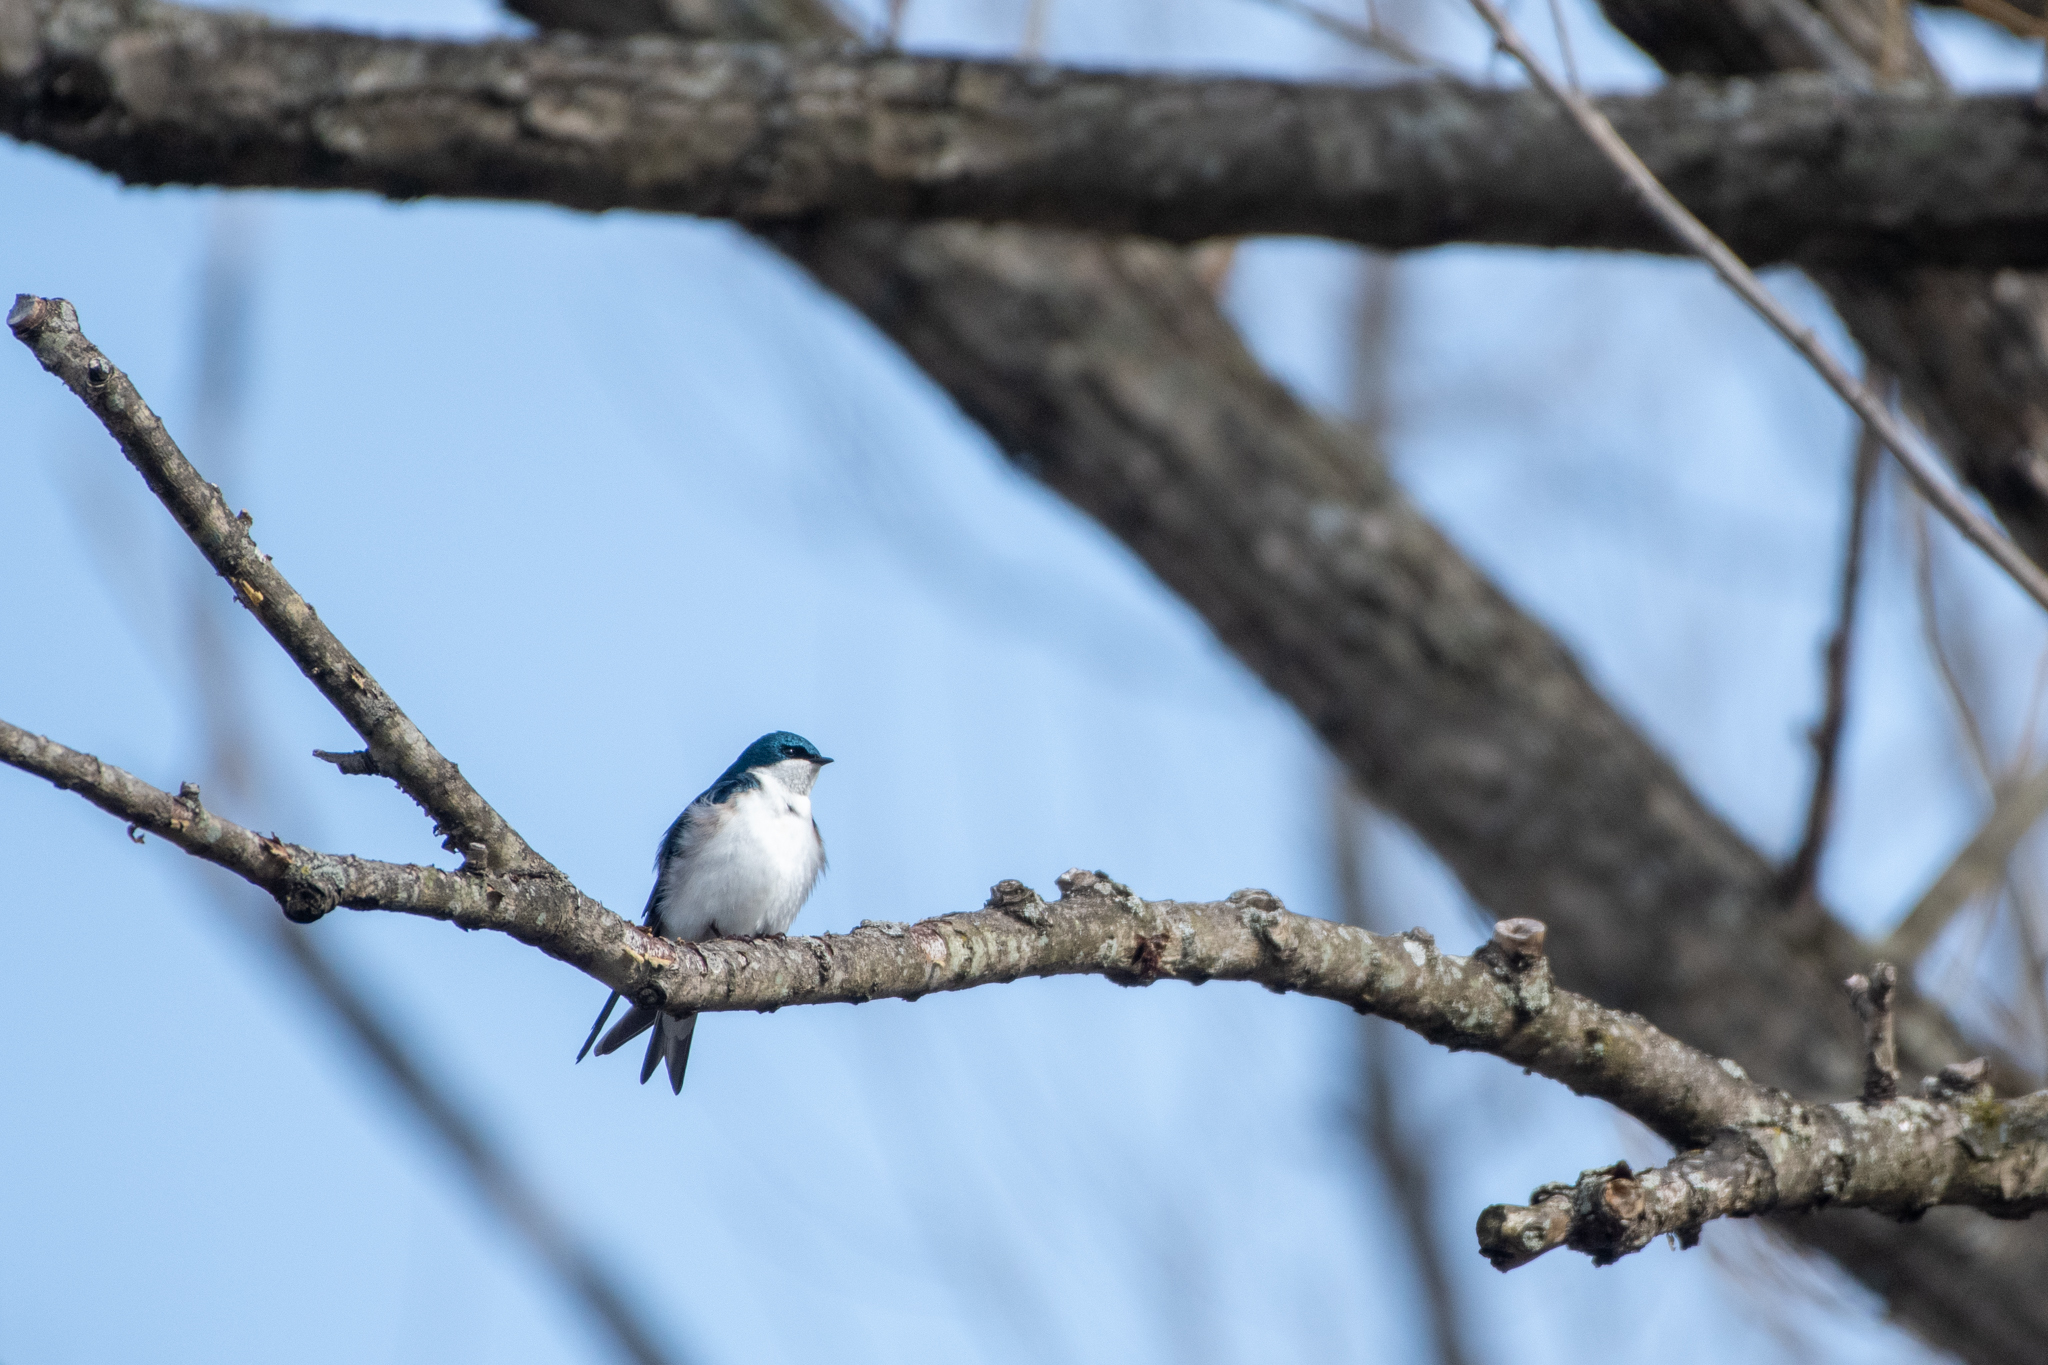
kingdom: Animalia
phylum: Chordata
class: Aves
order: Passeriformes
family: Hirundinidae
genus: Tachycineta
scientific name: Tachycineta bicolor
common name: Tree swallow
